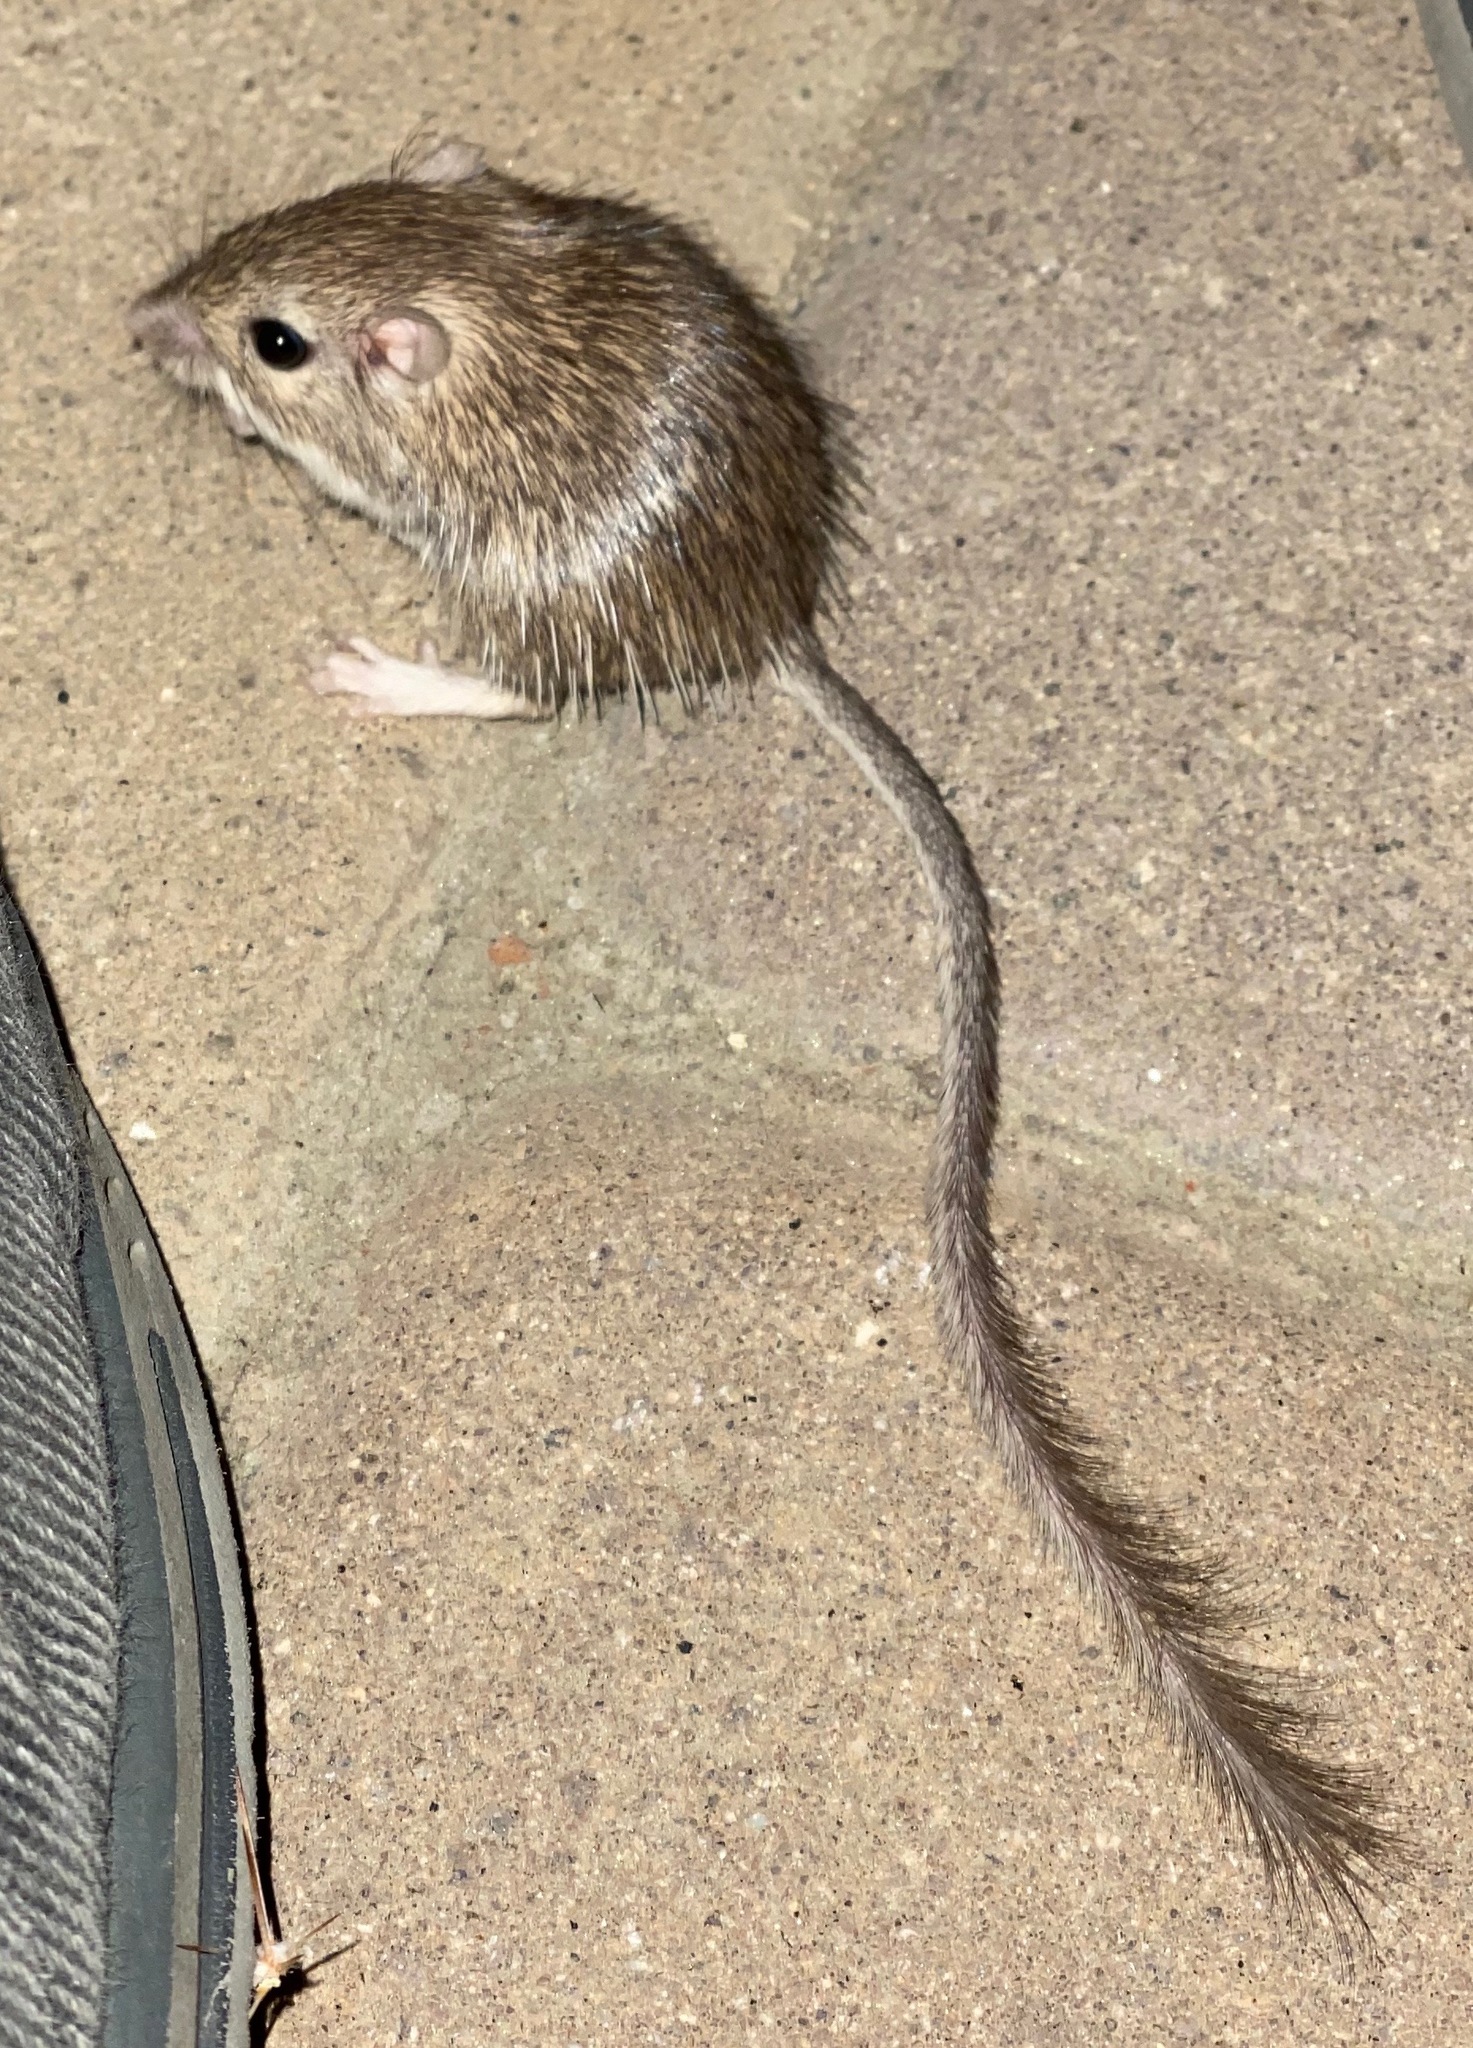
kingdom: Animalia
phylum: Chordata
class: Mammalia
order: Rodentia
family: Heteromyidae
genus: Chaetodipus
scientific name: Chaetodipus spinatus
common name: Spiny pocket mouse
